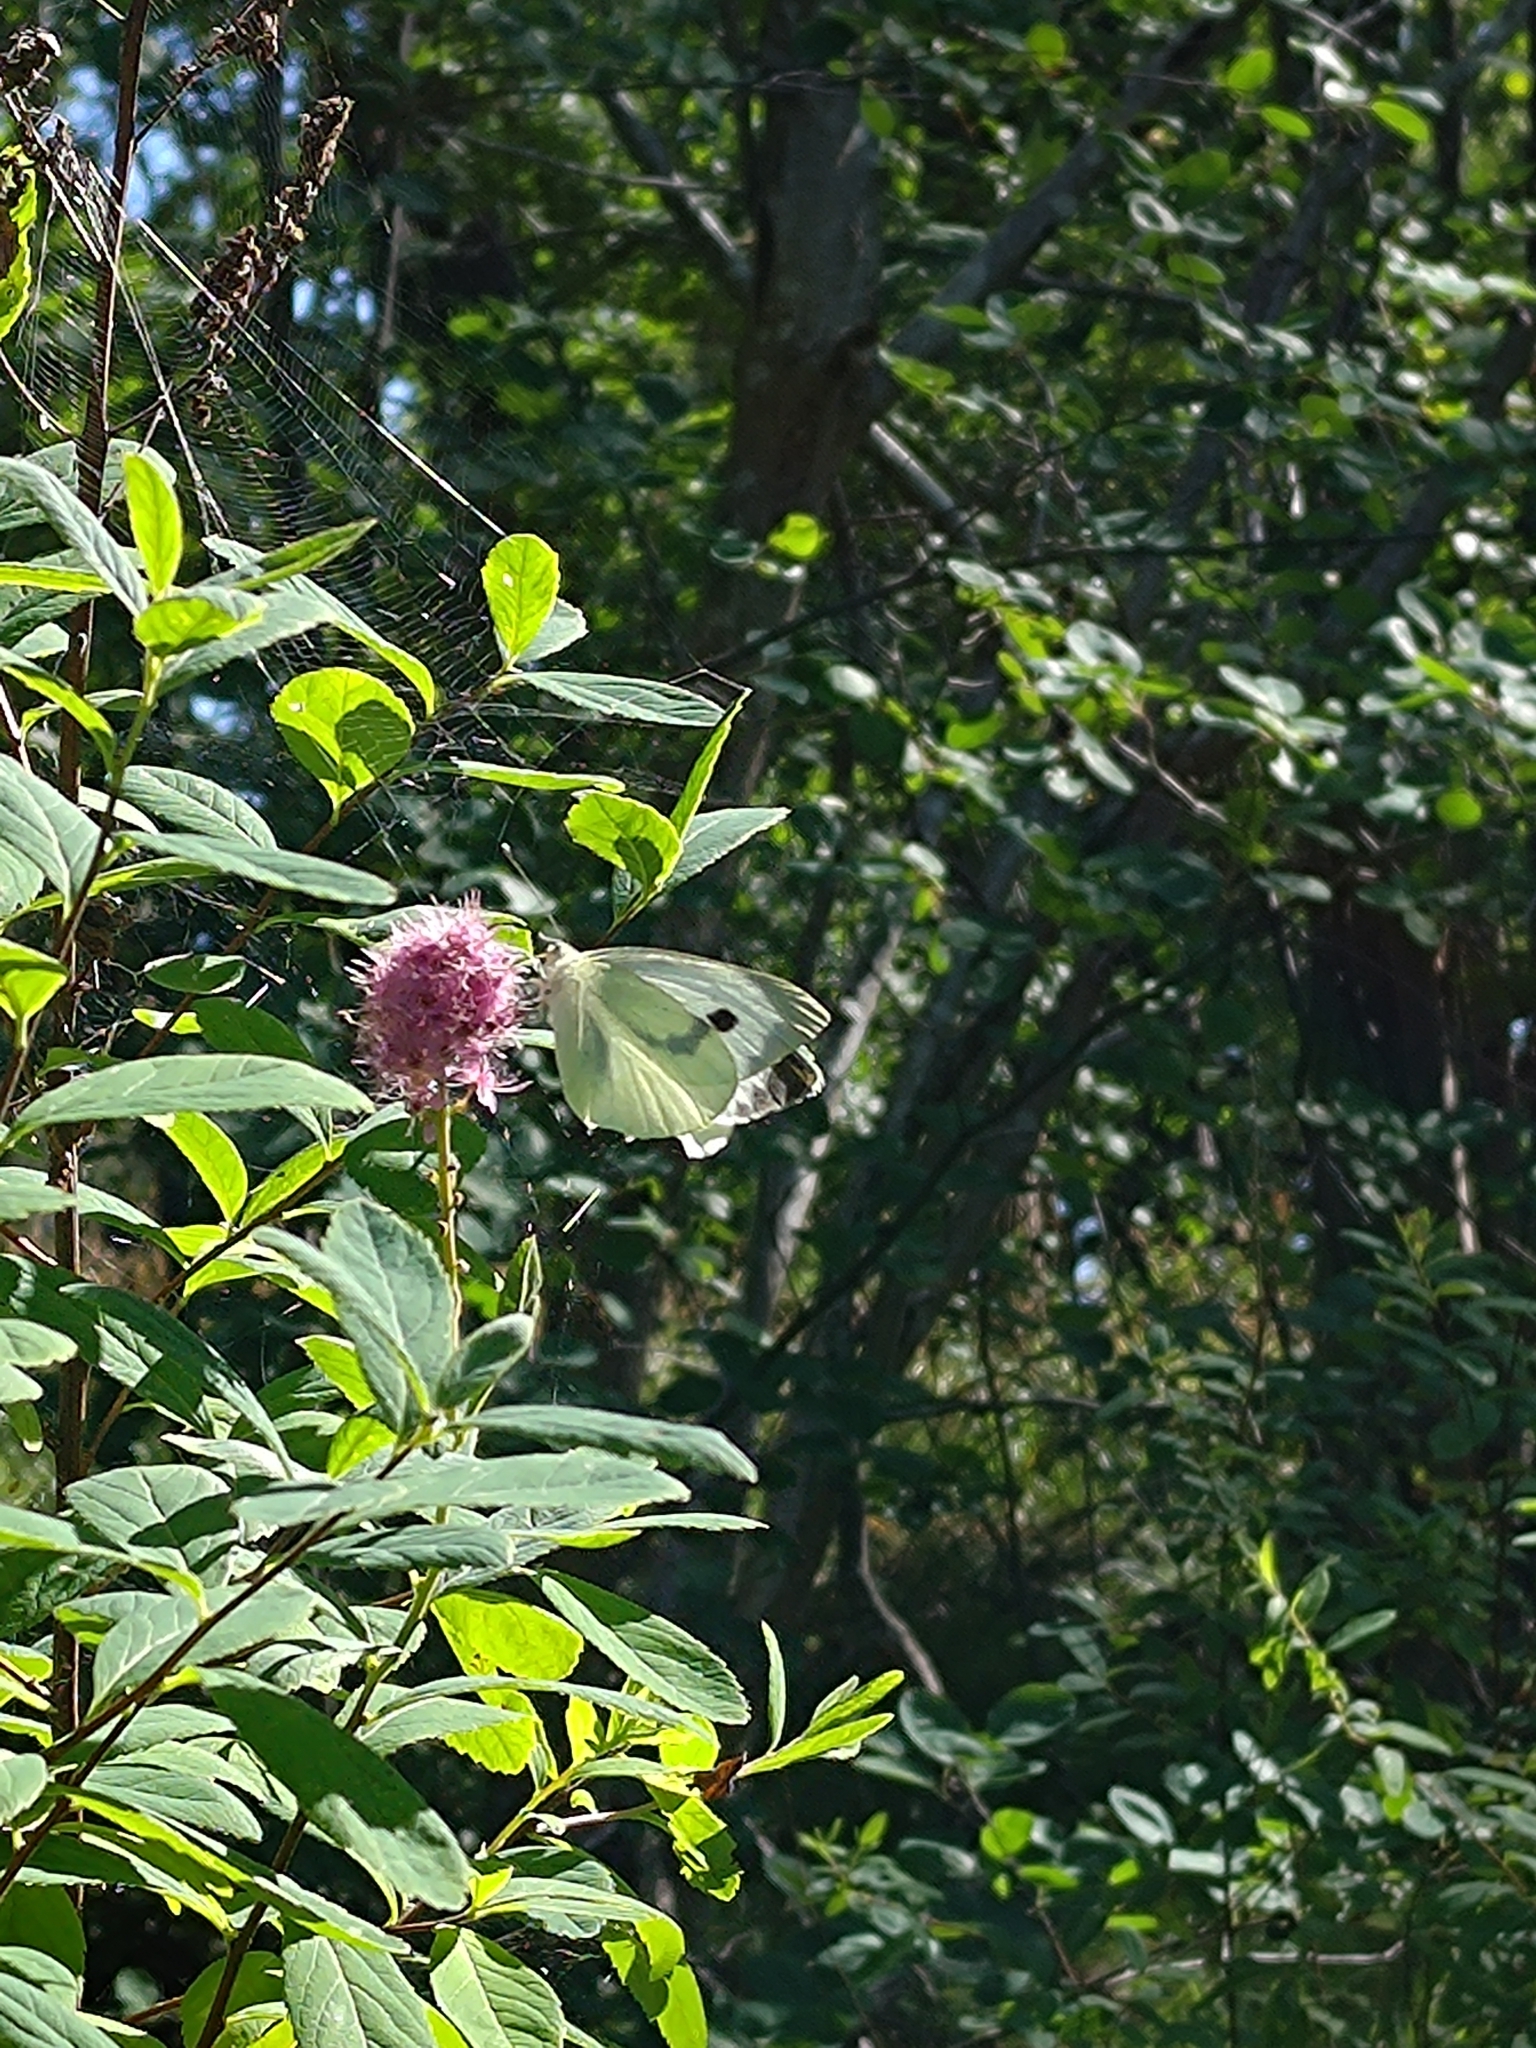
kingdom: Animalia
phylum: Arthropoda
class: Insecta
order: Lepidoptera
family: Pieridae
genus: Pieris
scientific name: Pieris brassicae
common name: Large white
